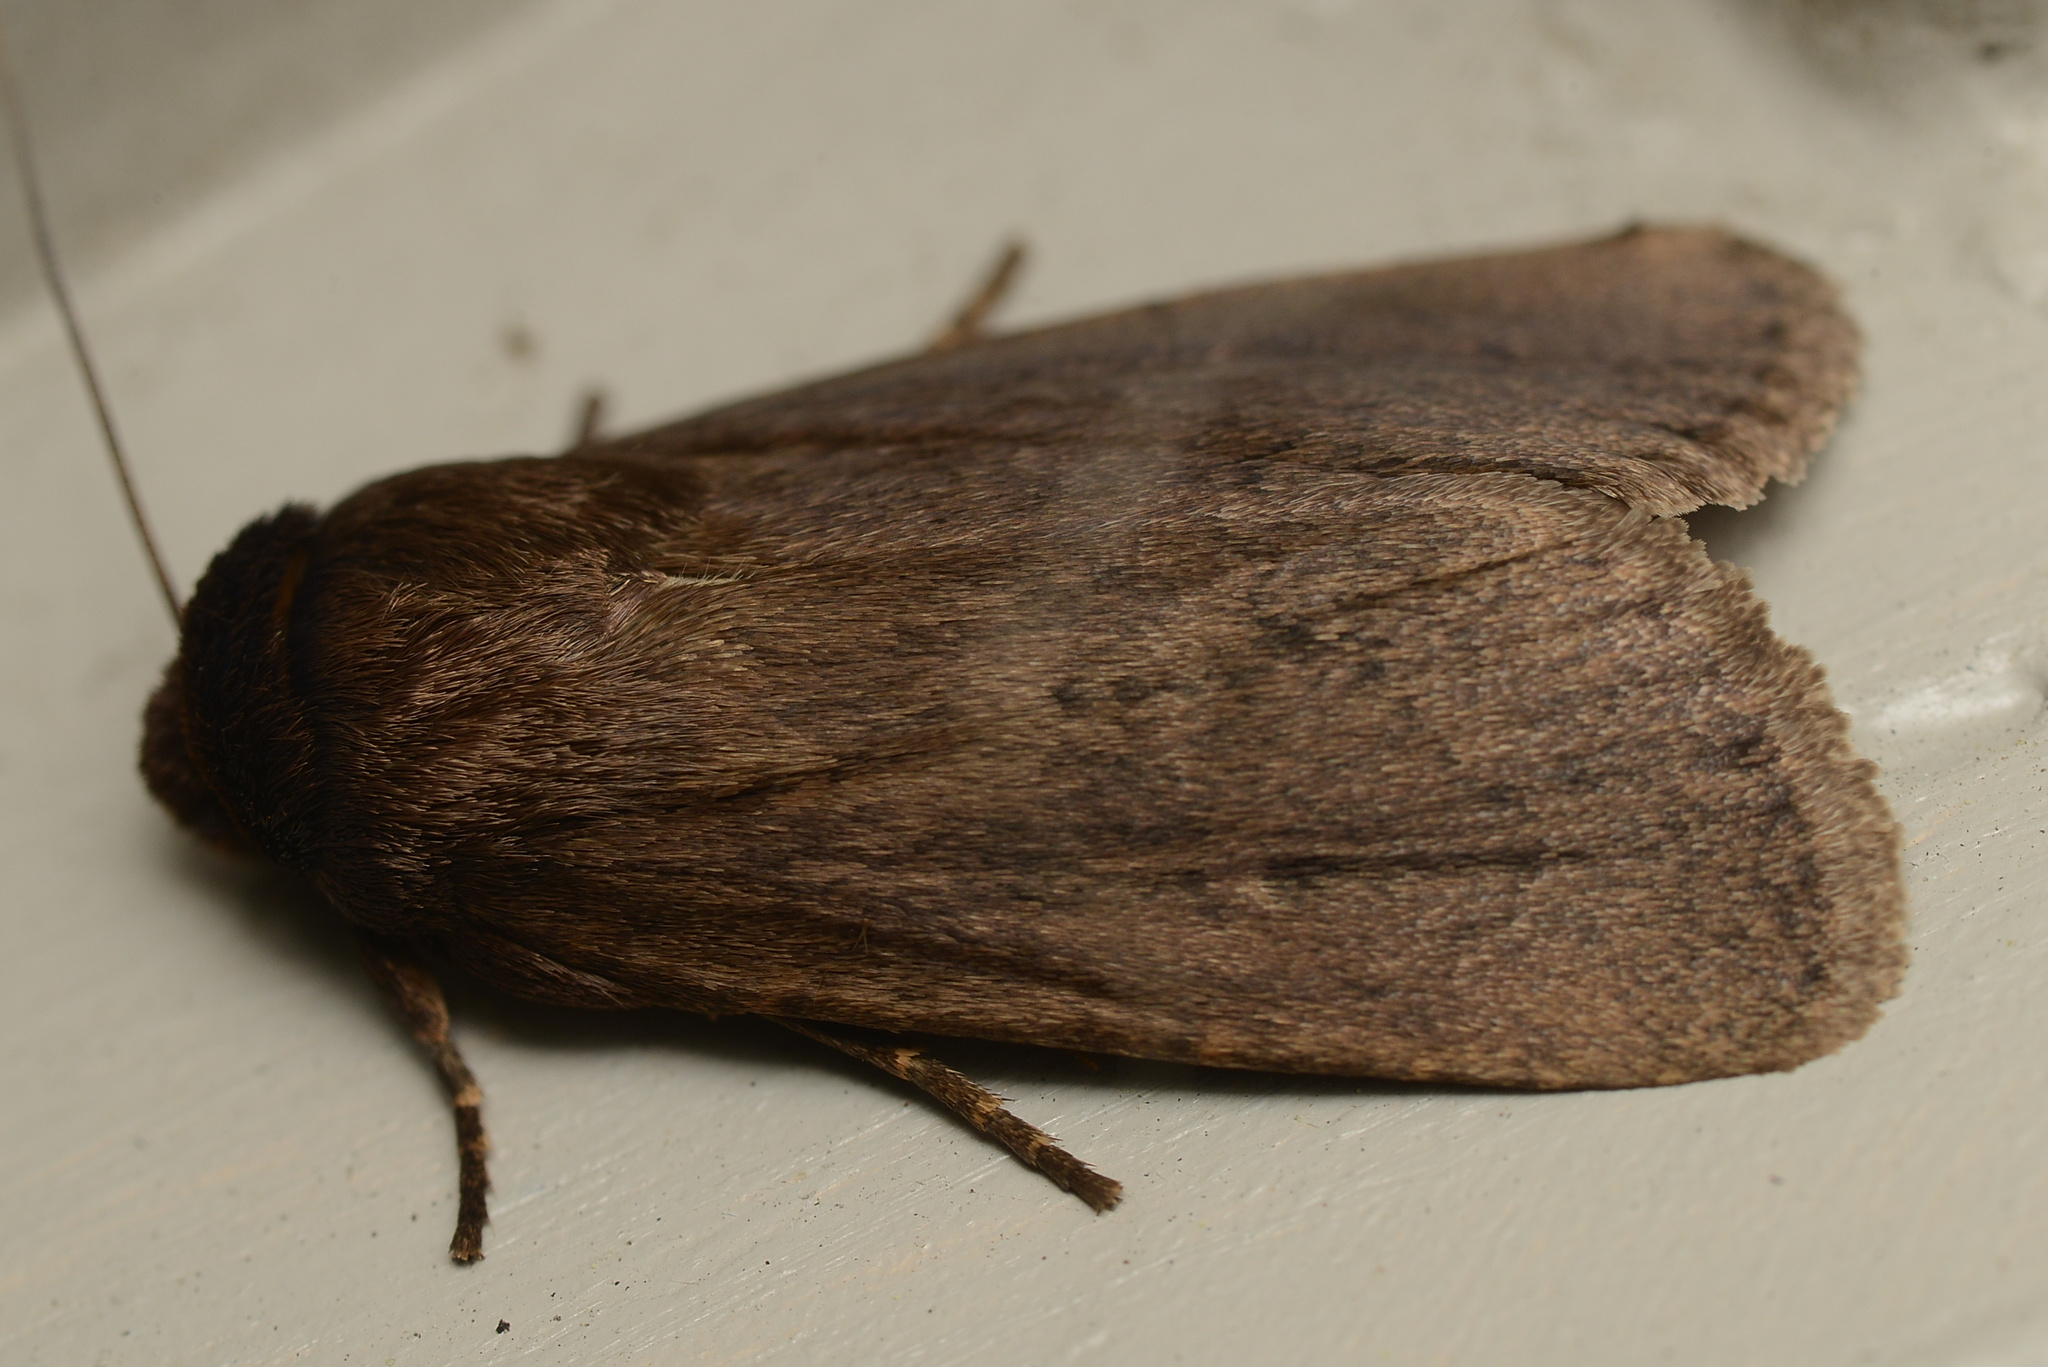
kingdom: Animalia
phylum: Arthropoda
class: Insecta
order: Lepidoptera
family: Noctuidae
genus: Bityla
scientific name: Bityla defigurata
